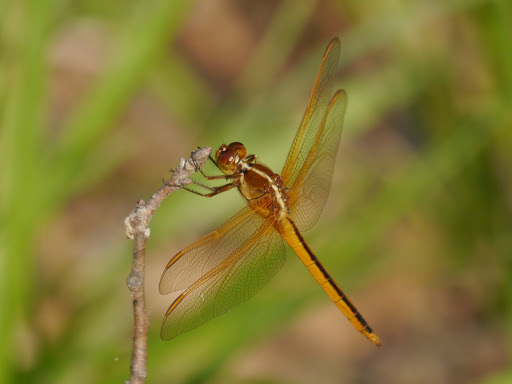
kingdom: Animalia
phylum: Arthropoda
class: Insecta
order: Odonata
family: Libellulidae
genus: Libellula
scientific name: Libellula needhami
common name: Needham's skimmer
